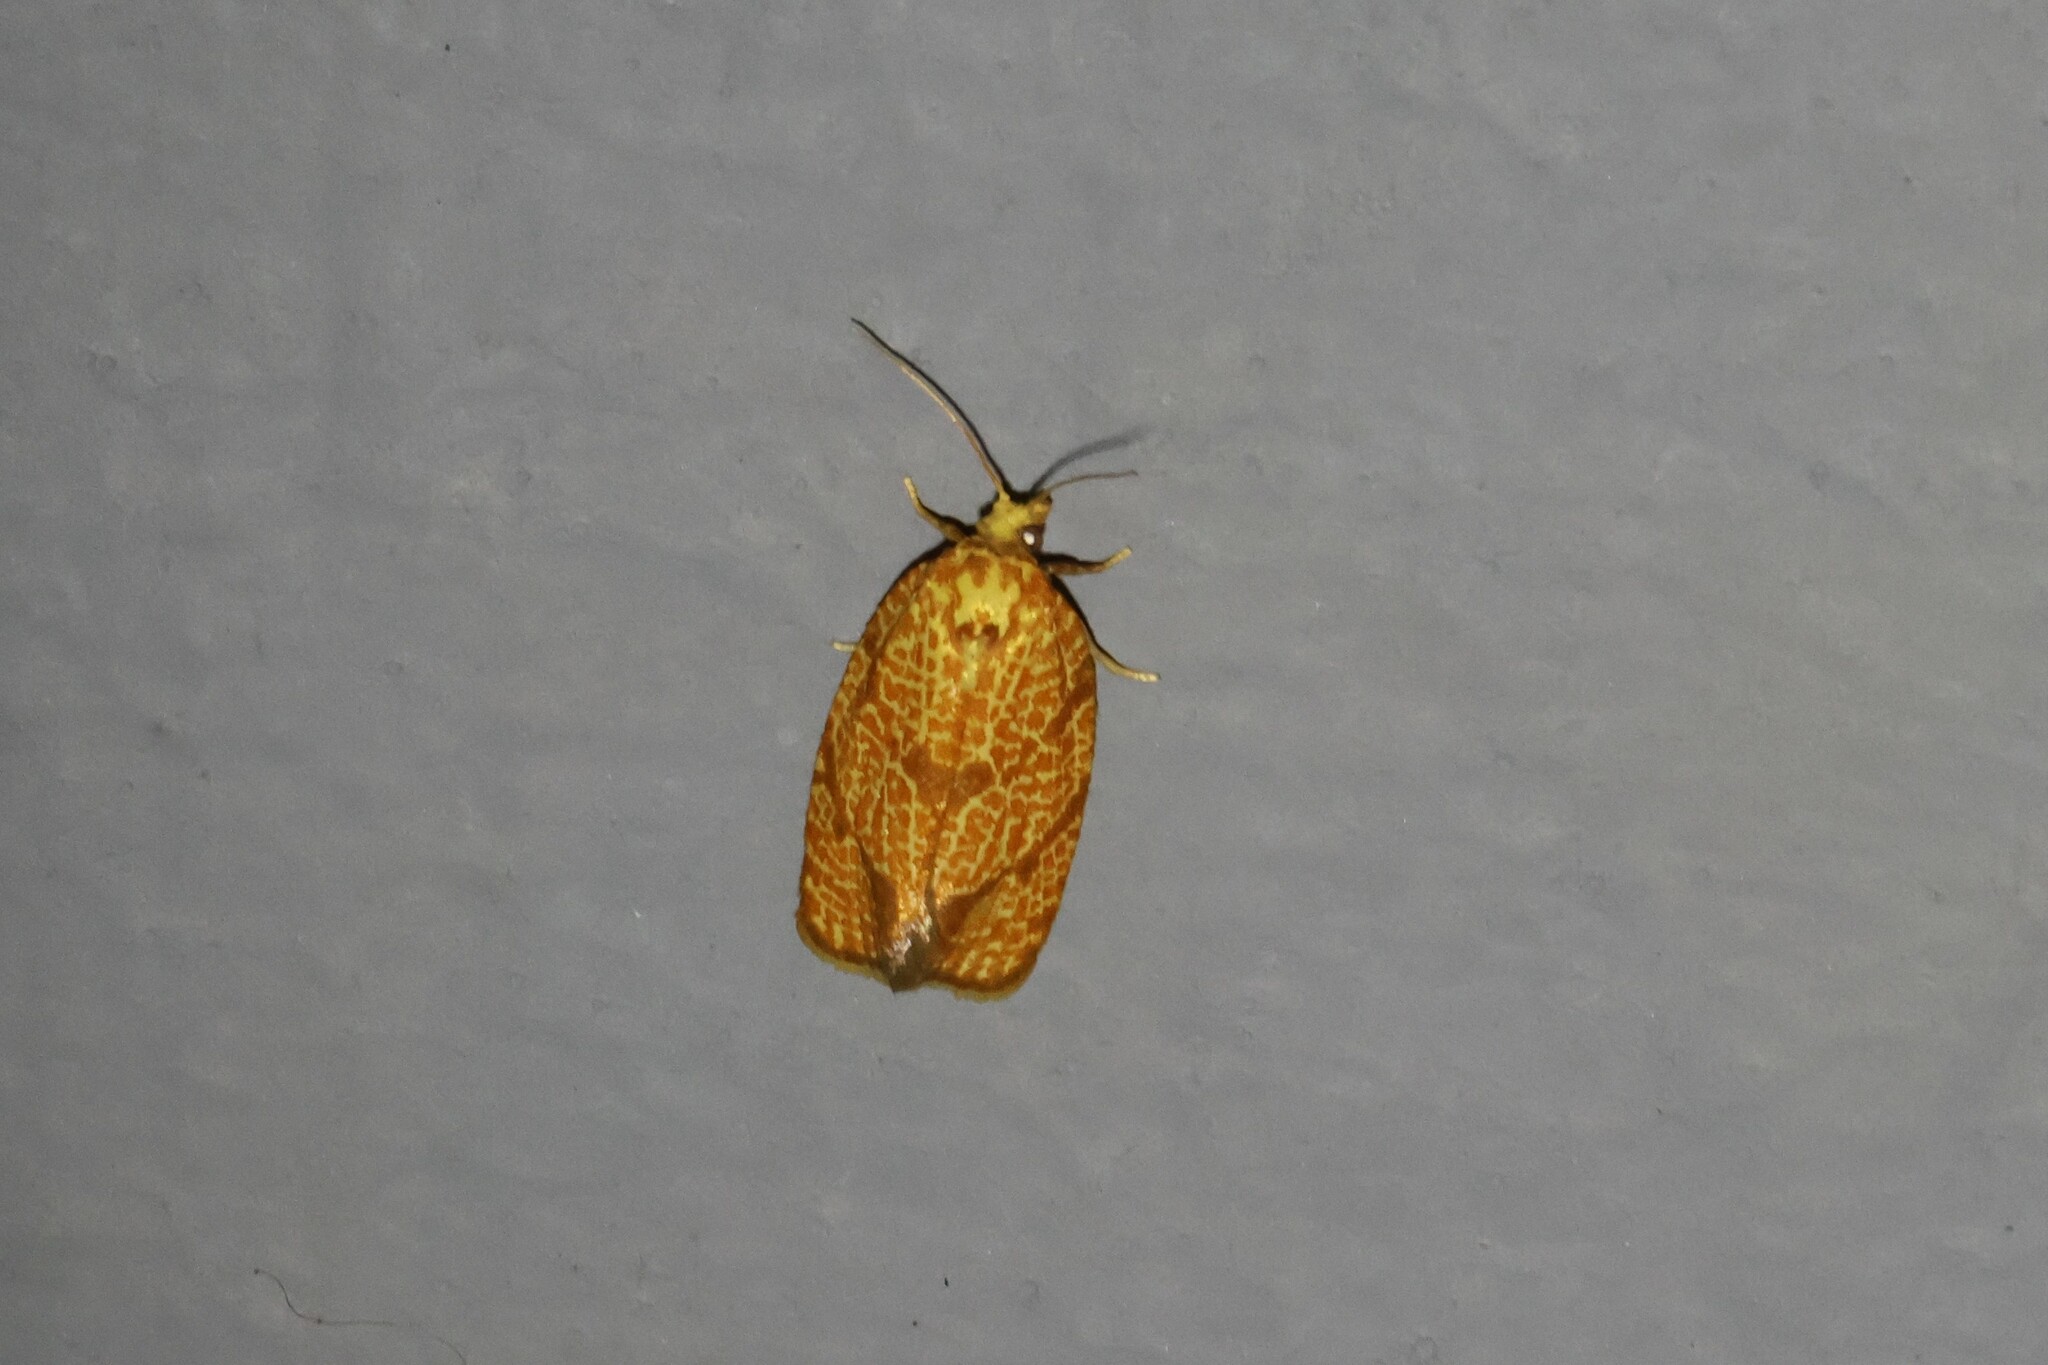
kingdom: Animalia
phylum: Arthropoda
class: Insecta
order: Lepidoptera
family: Tortricidae
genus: Argyrotaenia
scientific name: Argyrotaenia quadrifasciana
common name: Four-lined leafroller moth
